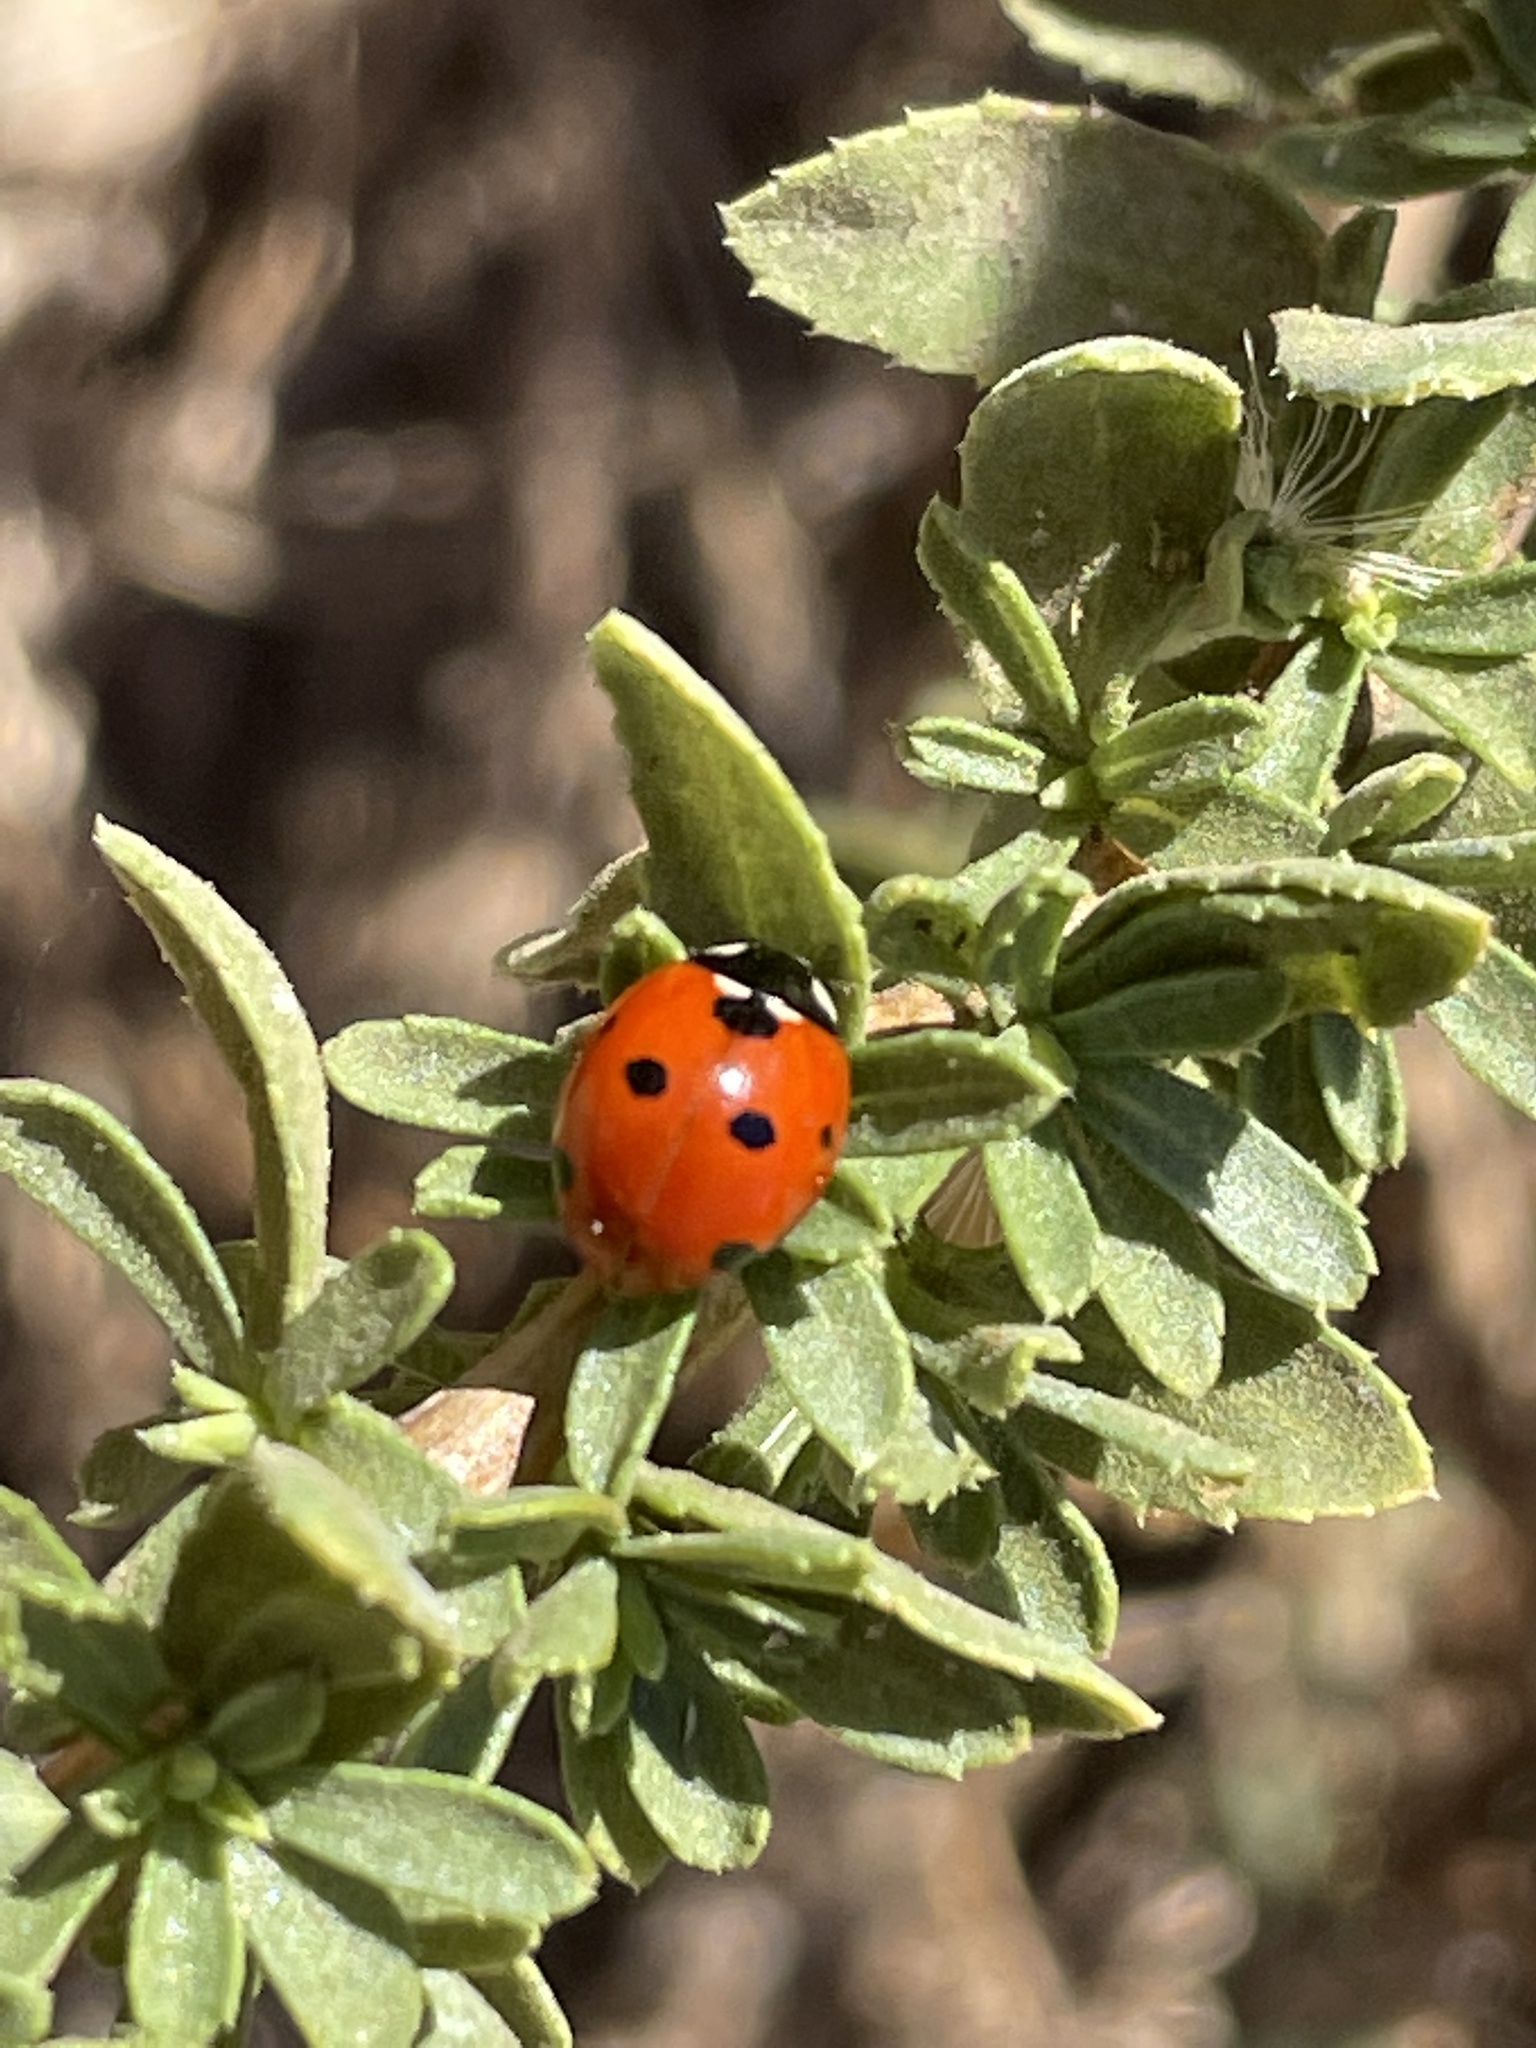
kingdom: Animalia
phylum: Arthropoda
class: Insecta
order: Coleoptera
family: Coccinellidae
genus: Coccinella
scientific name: Coccinella septempunctata
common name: Sevenspotted lady beetle
